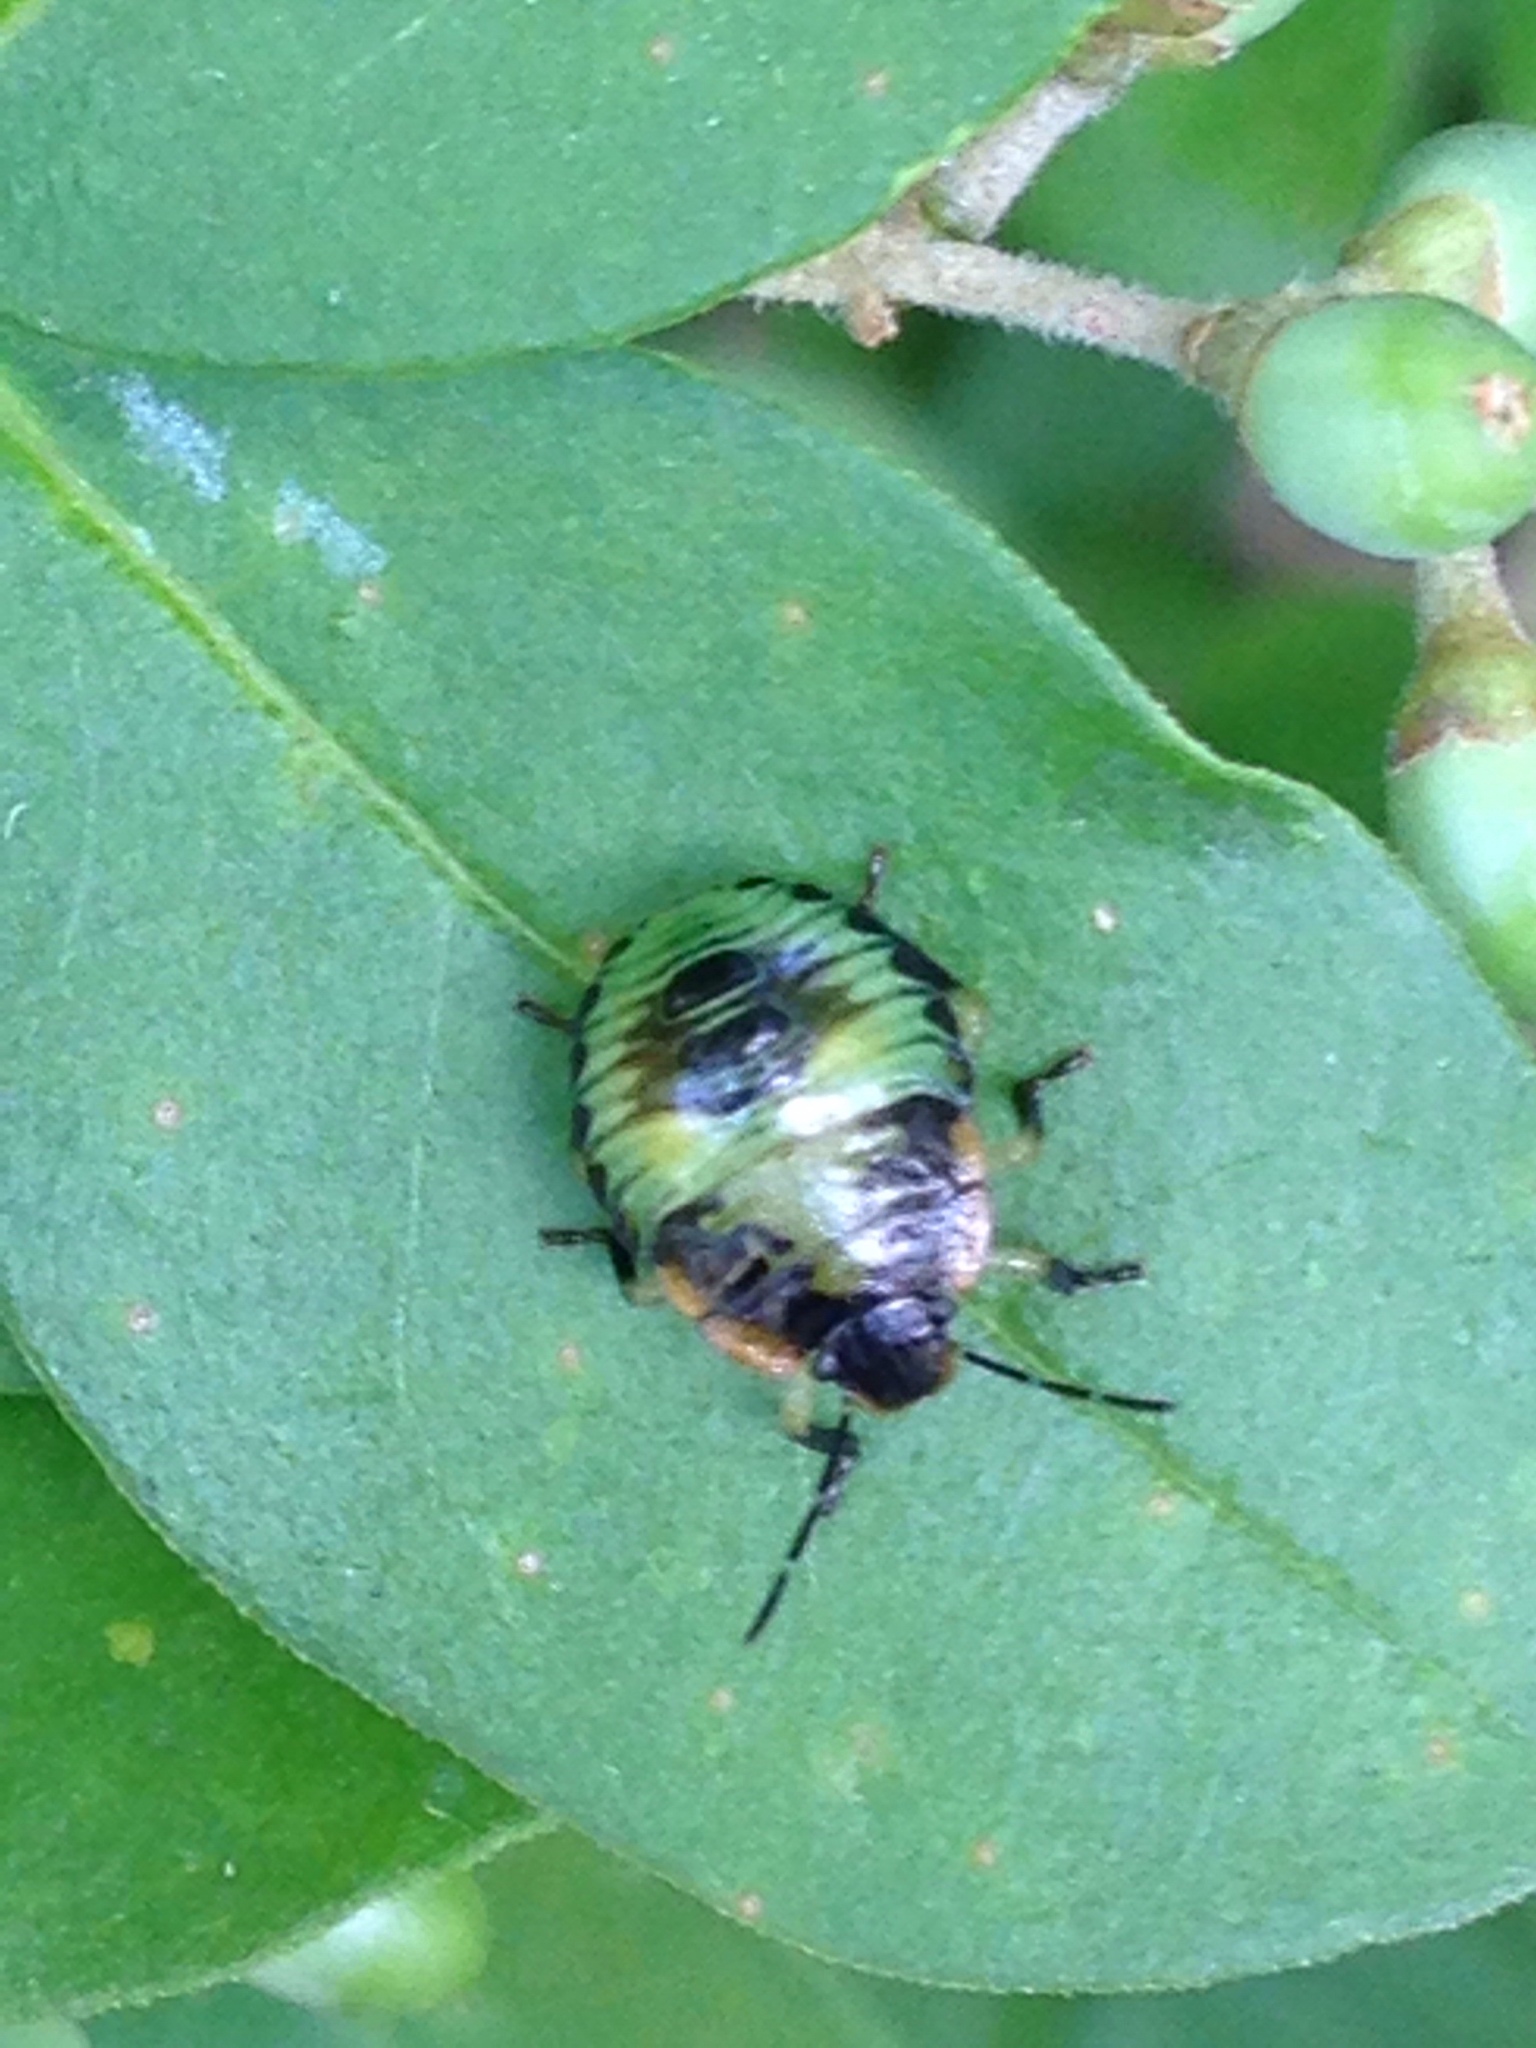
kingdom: Animalia
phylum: Arthropoda
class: Insecta
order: Hemiptera
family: Pentatomidae
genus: Chinavia
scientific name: Chinavia hilaris
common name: Green stink bug
